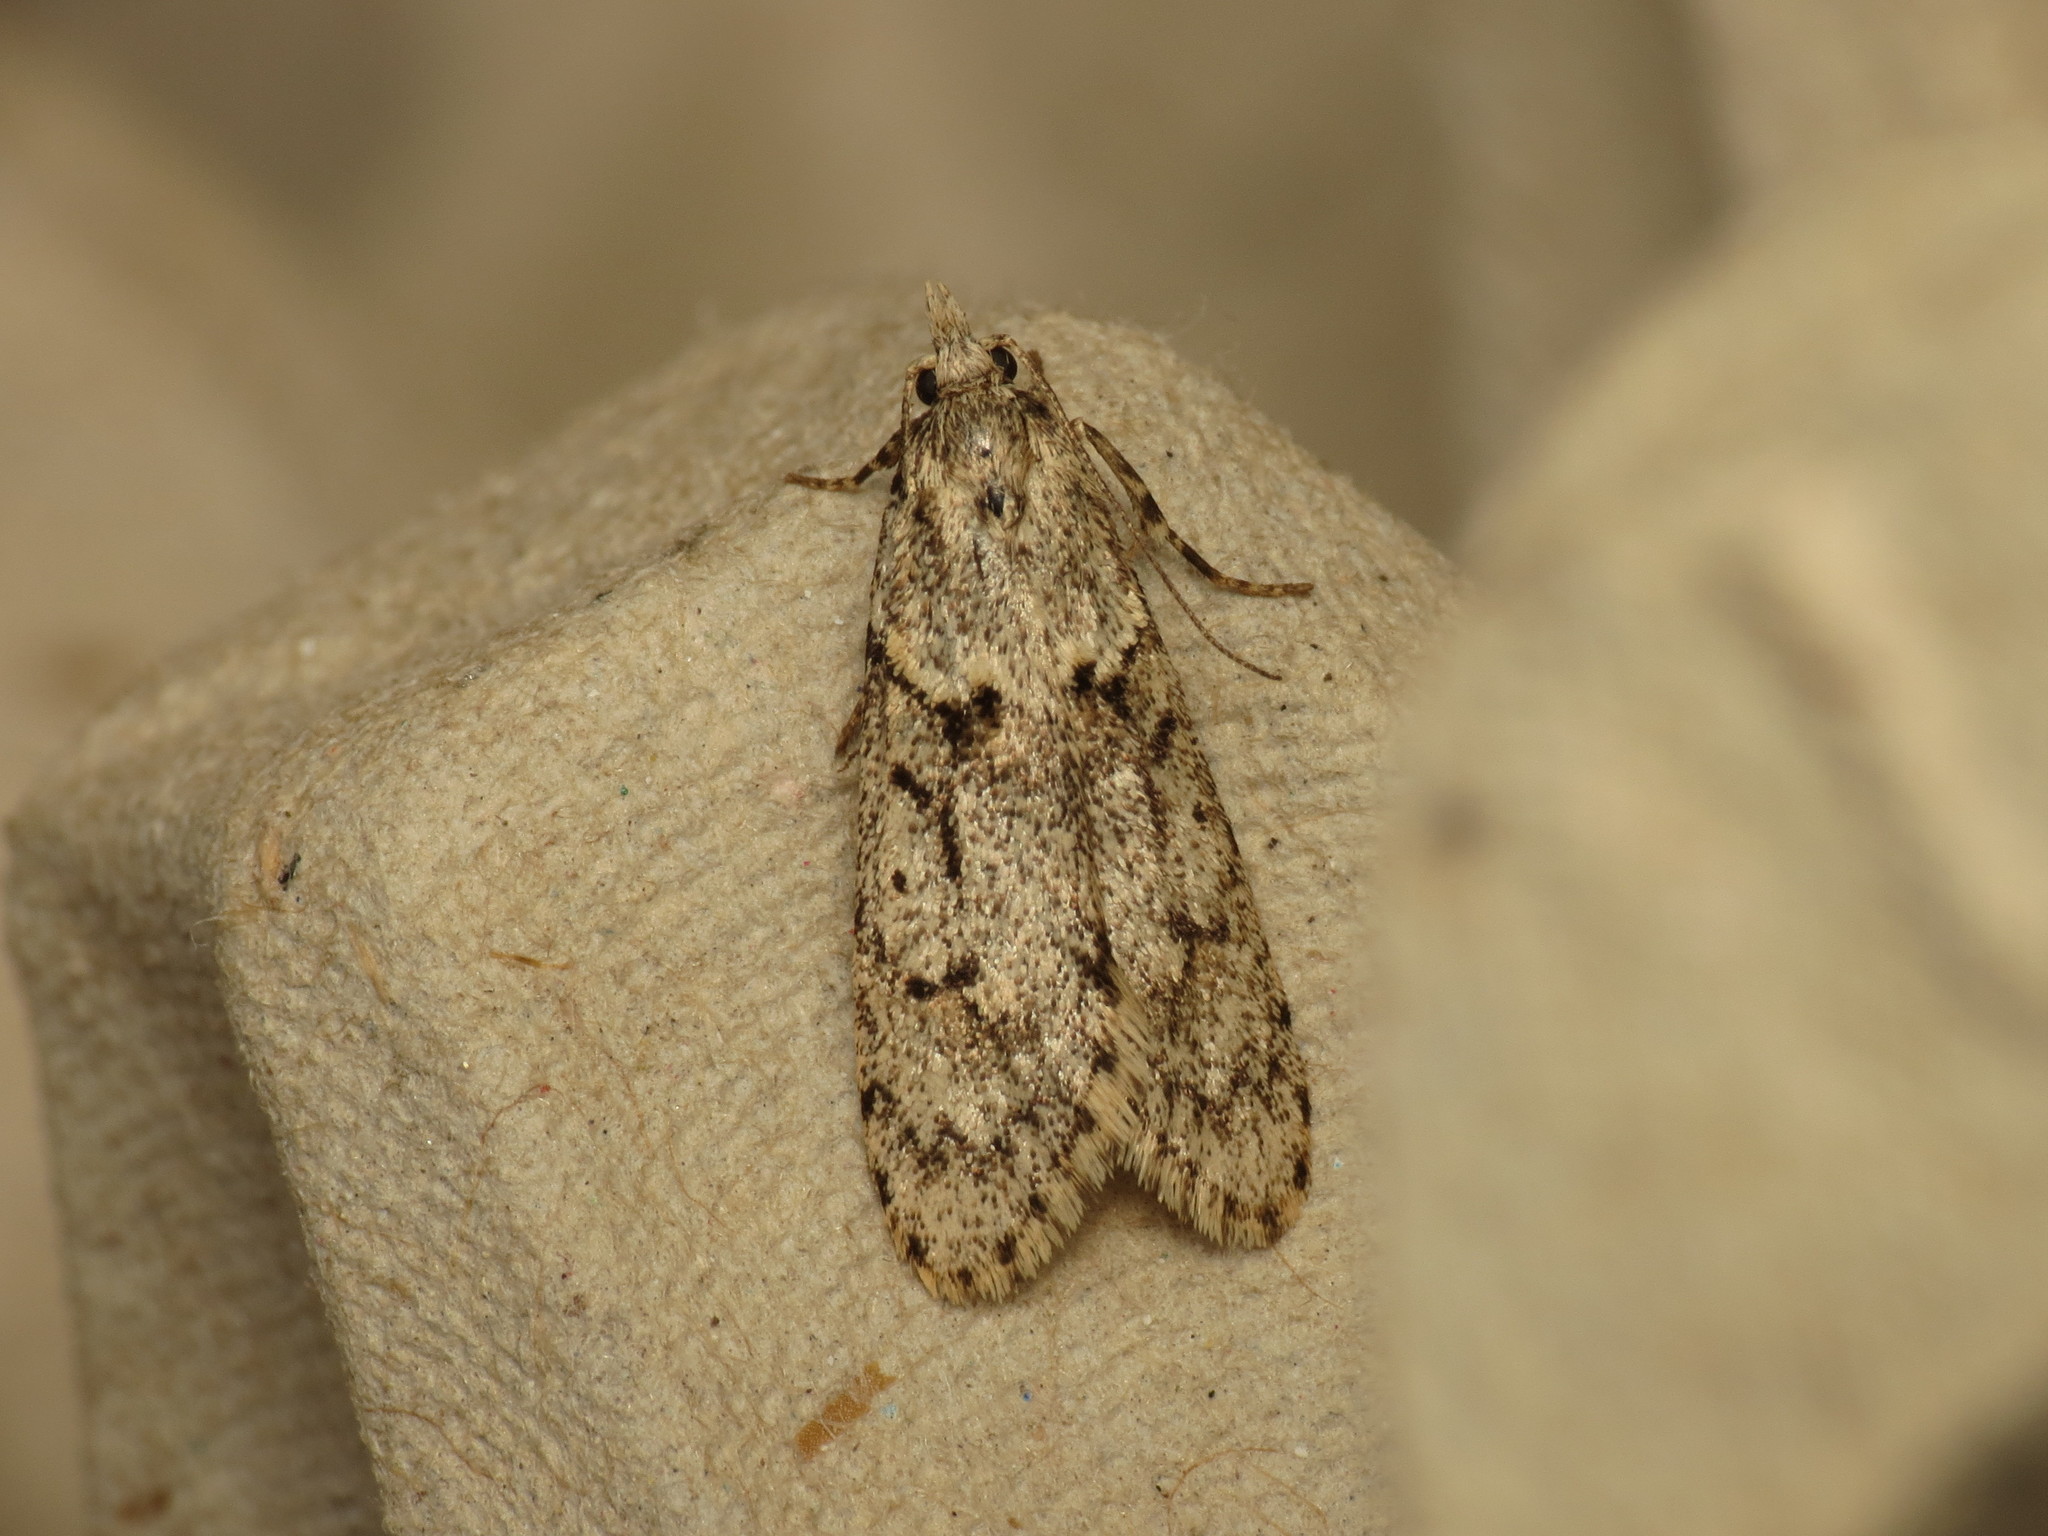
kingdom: Animalia
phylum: Arthropoda
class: Insecta
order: Lepidoptera
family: Lypusidae
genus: Diurnea
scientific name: Diurnea fagella
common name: March tubic
